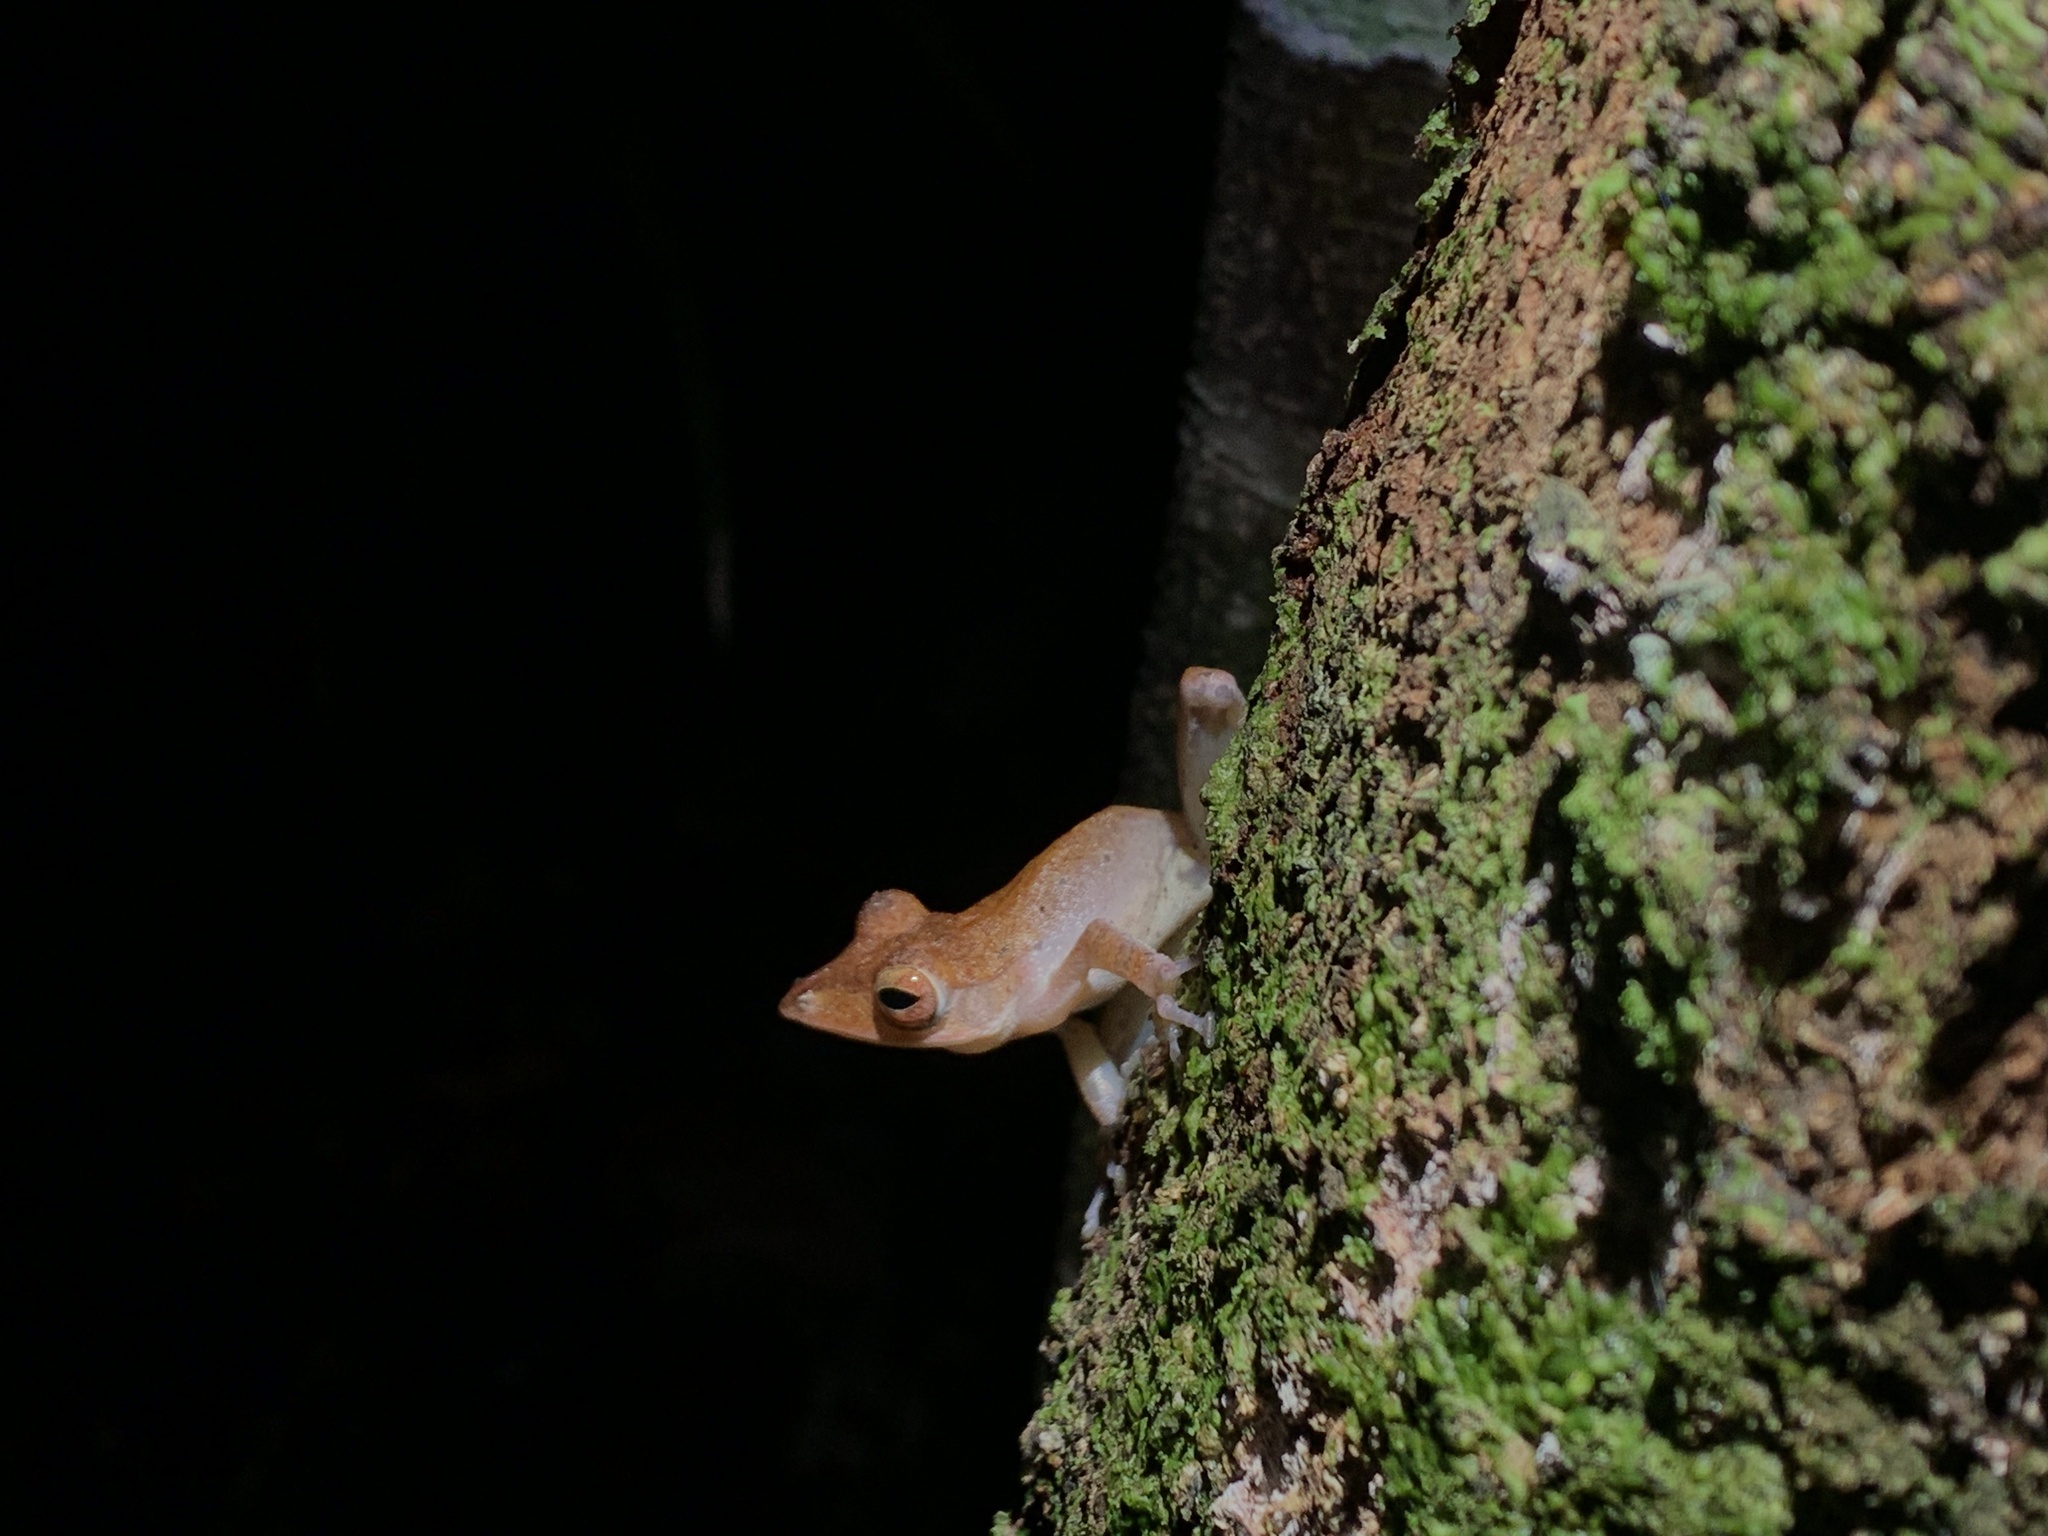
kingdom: Animalia
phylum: Chordata
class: Amphibia
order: Anura
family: Rhacophoridae
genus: Polypedates
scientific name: Polypedates colletti
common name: Collett’s tree frog
